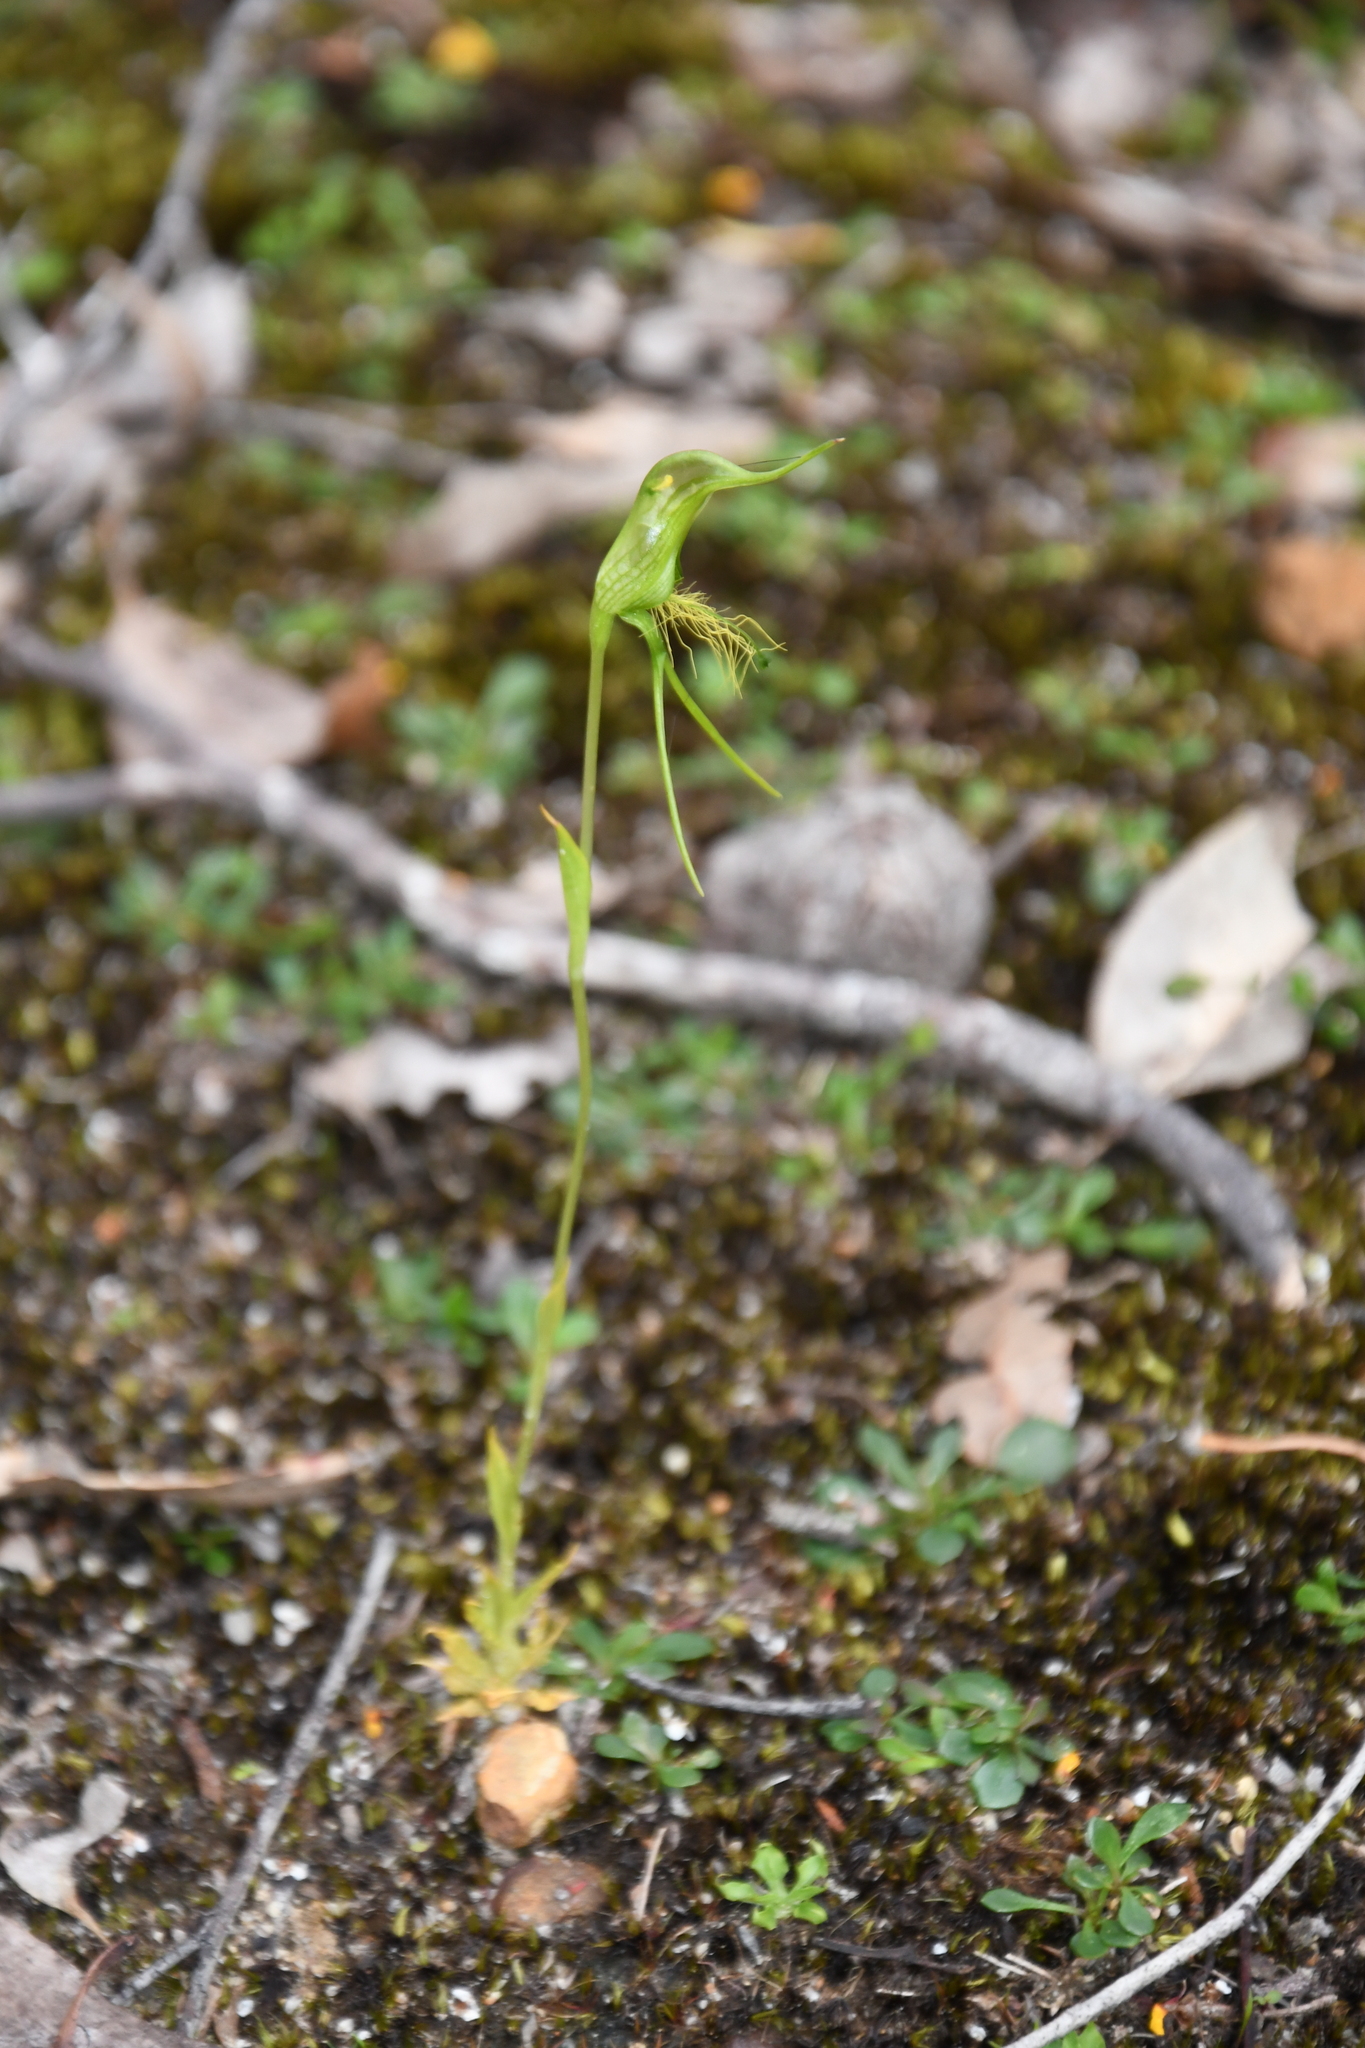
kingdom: Plantae
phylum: Tracheophyta
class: Liliopsida
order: Asparagales
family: Orchidaceae
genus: Pterostylis
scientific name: Pterostylis turfosa
